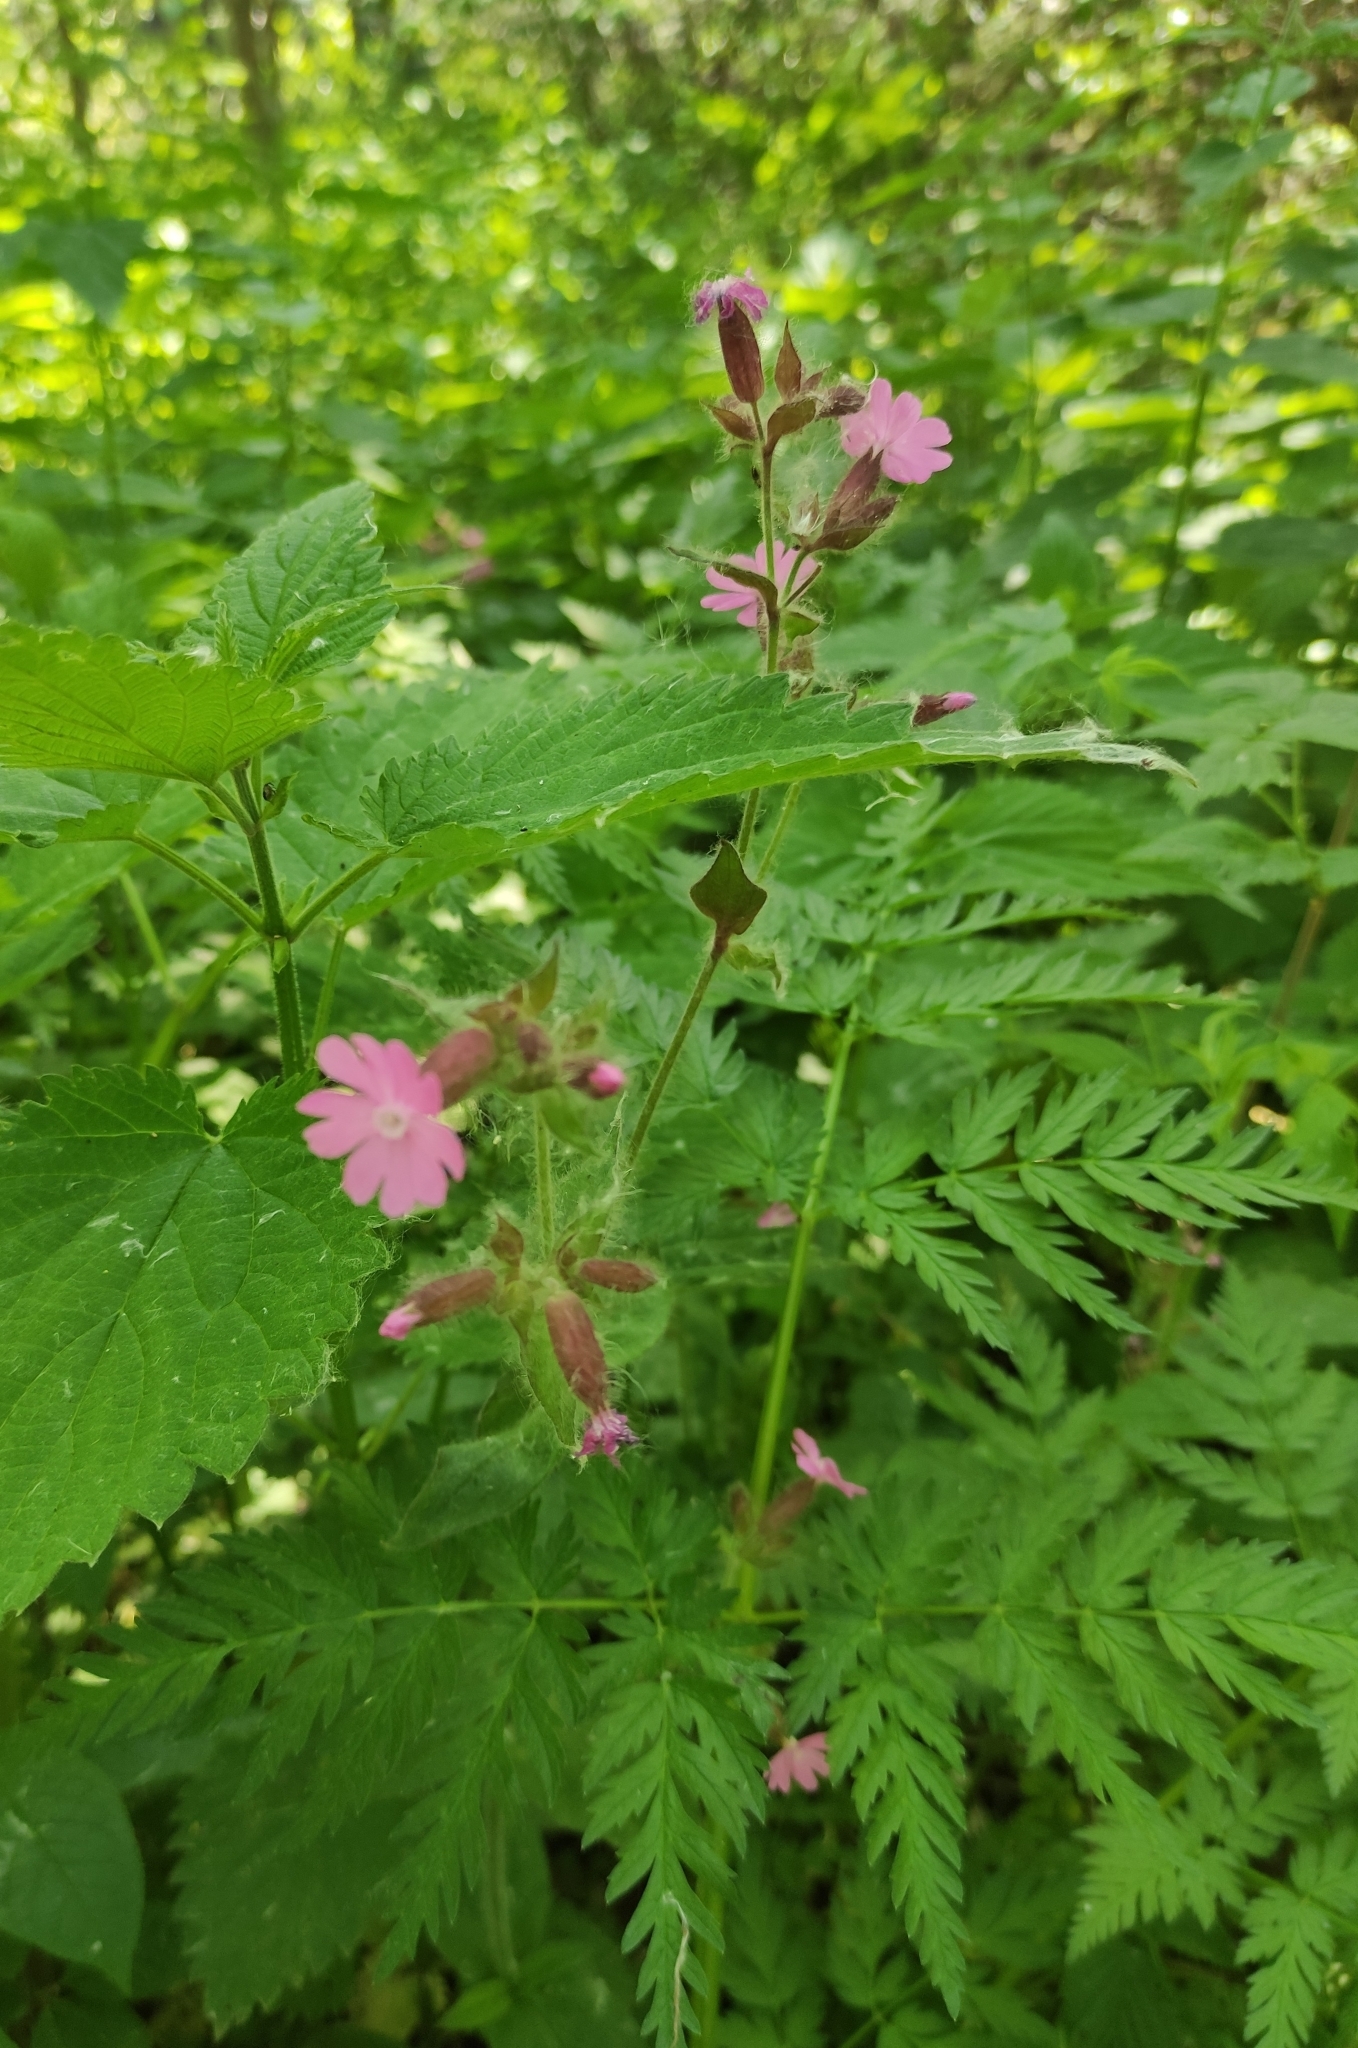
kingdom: Plantae
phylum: Tracheophyta
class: Magnoliopsida
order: Caryophyllales
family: Caryophyllaceae
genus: Silene
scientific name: Silene dioica
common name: Red campion
